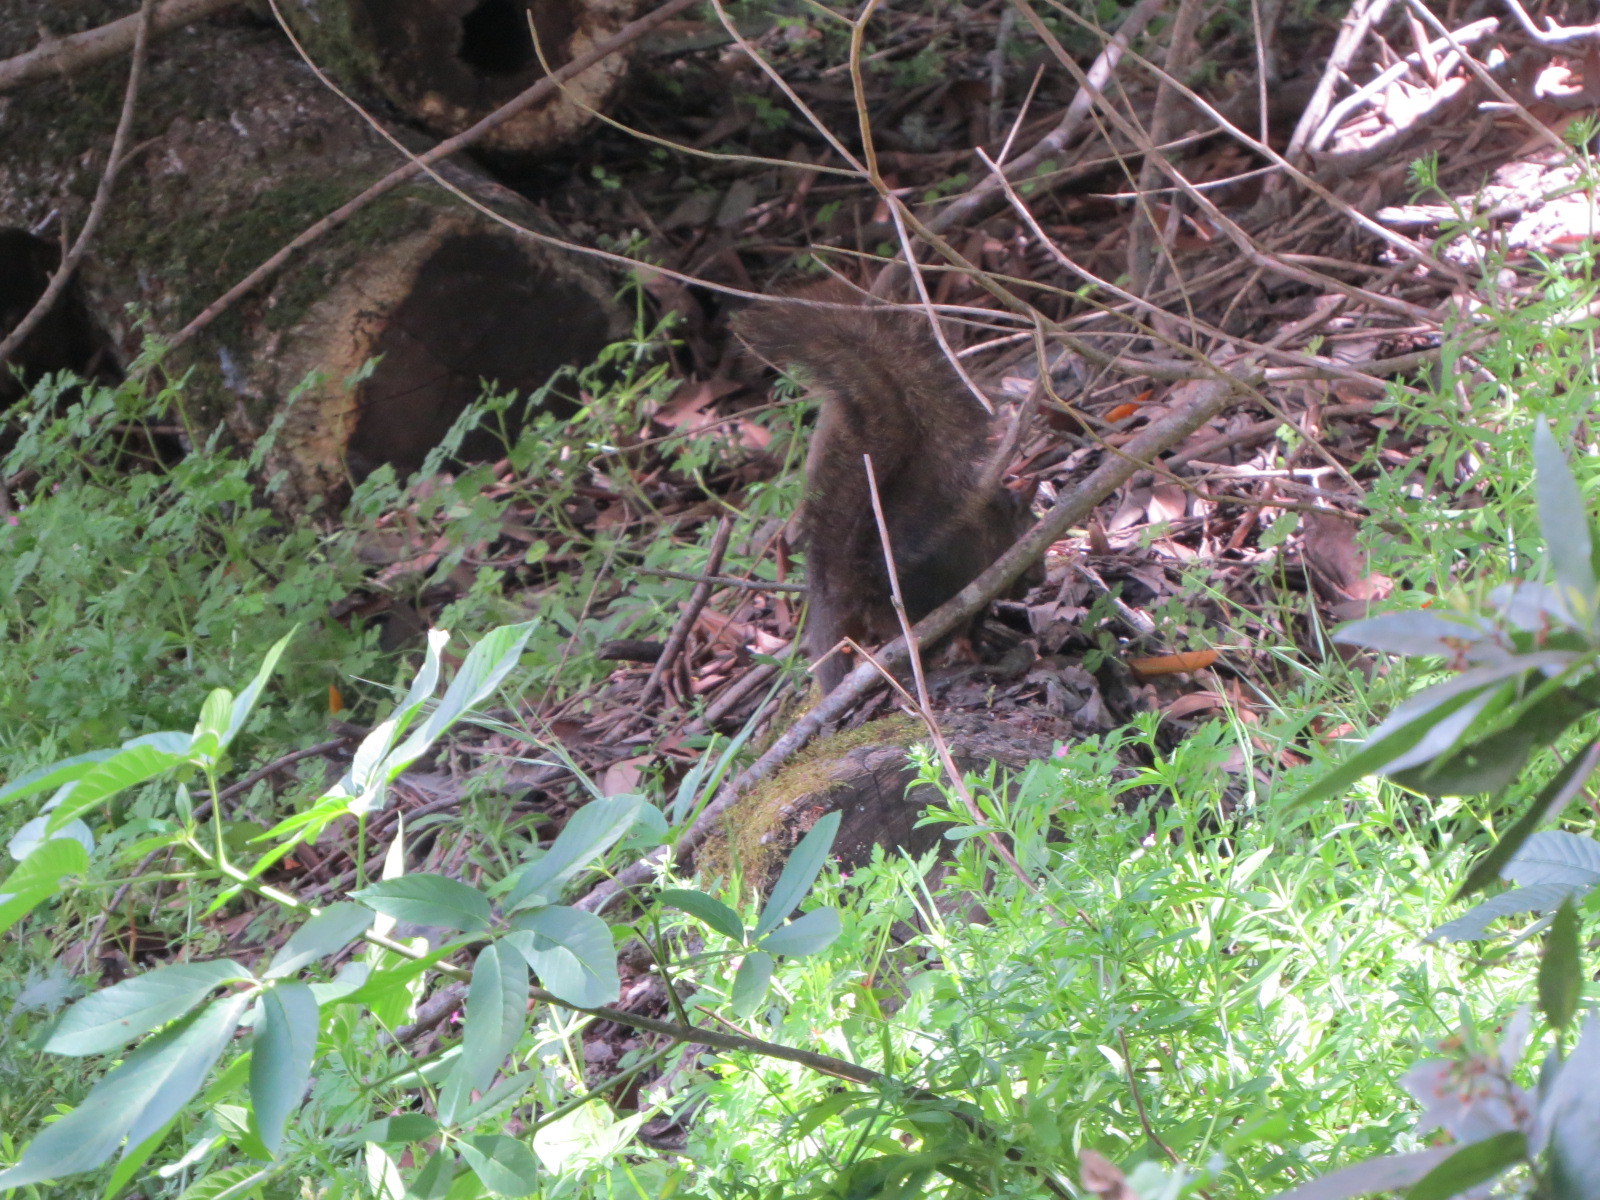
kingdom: Animalia
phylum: Chordata
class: Mammalia
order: Rodentia
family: Sciuridae
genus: Sciurus
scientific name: Sciurus carolinensis
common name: Eastern gray squirrel
